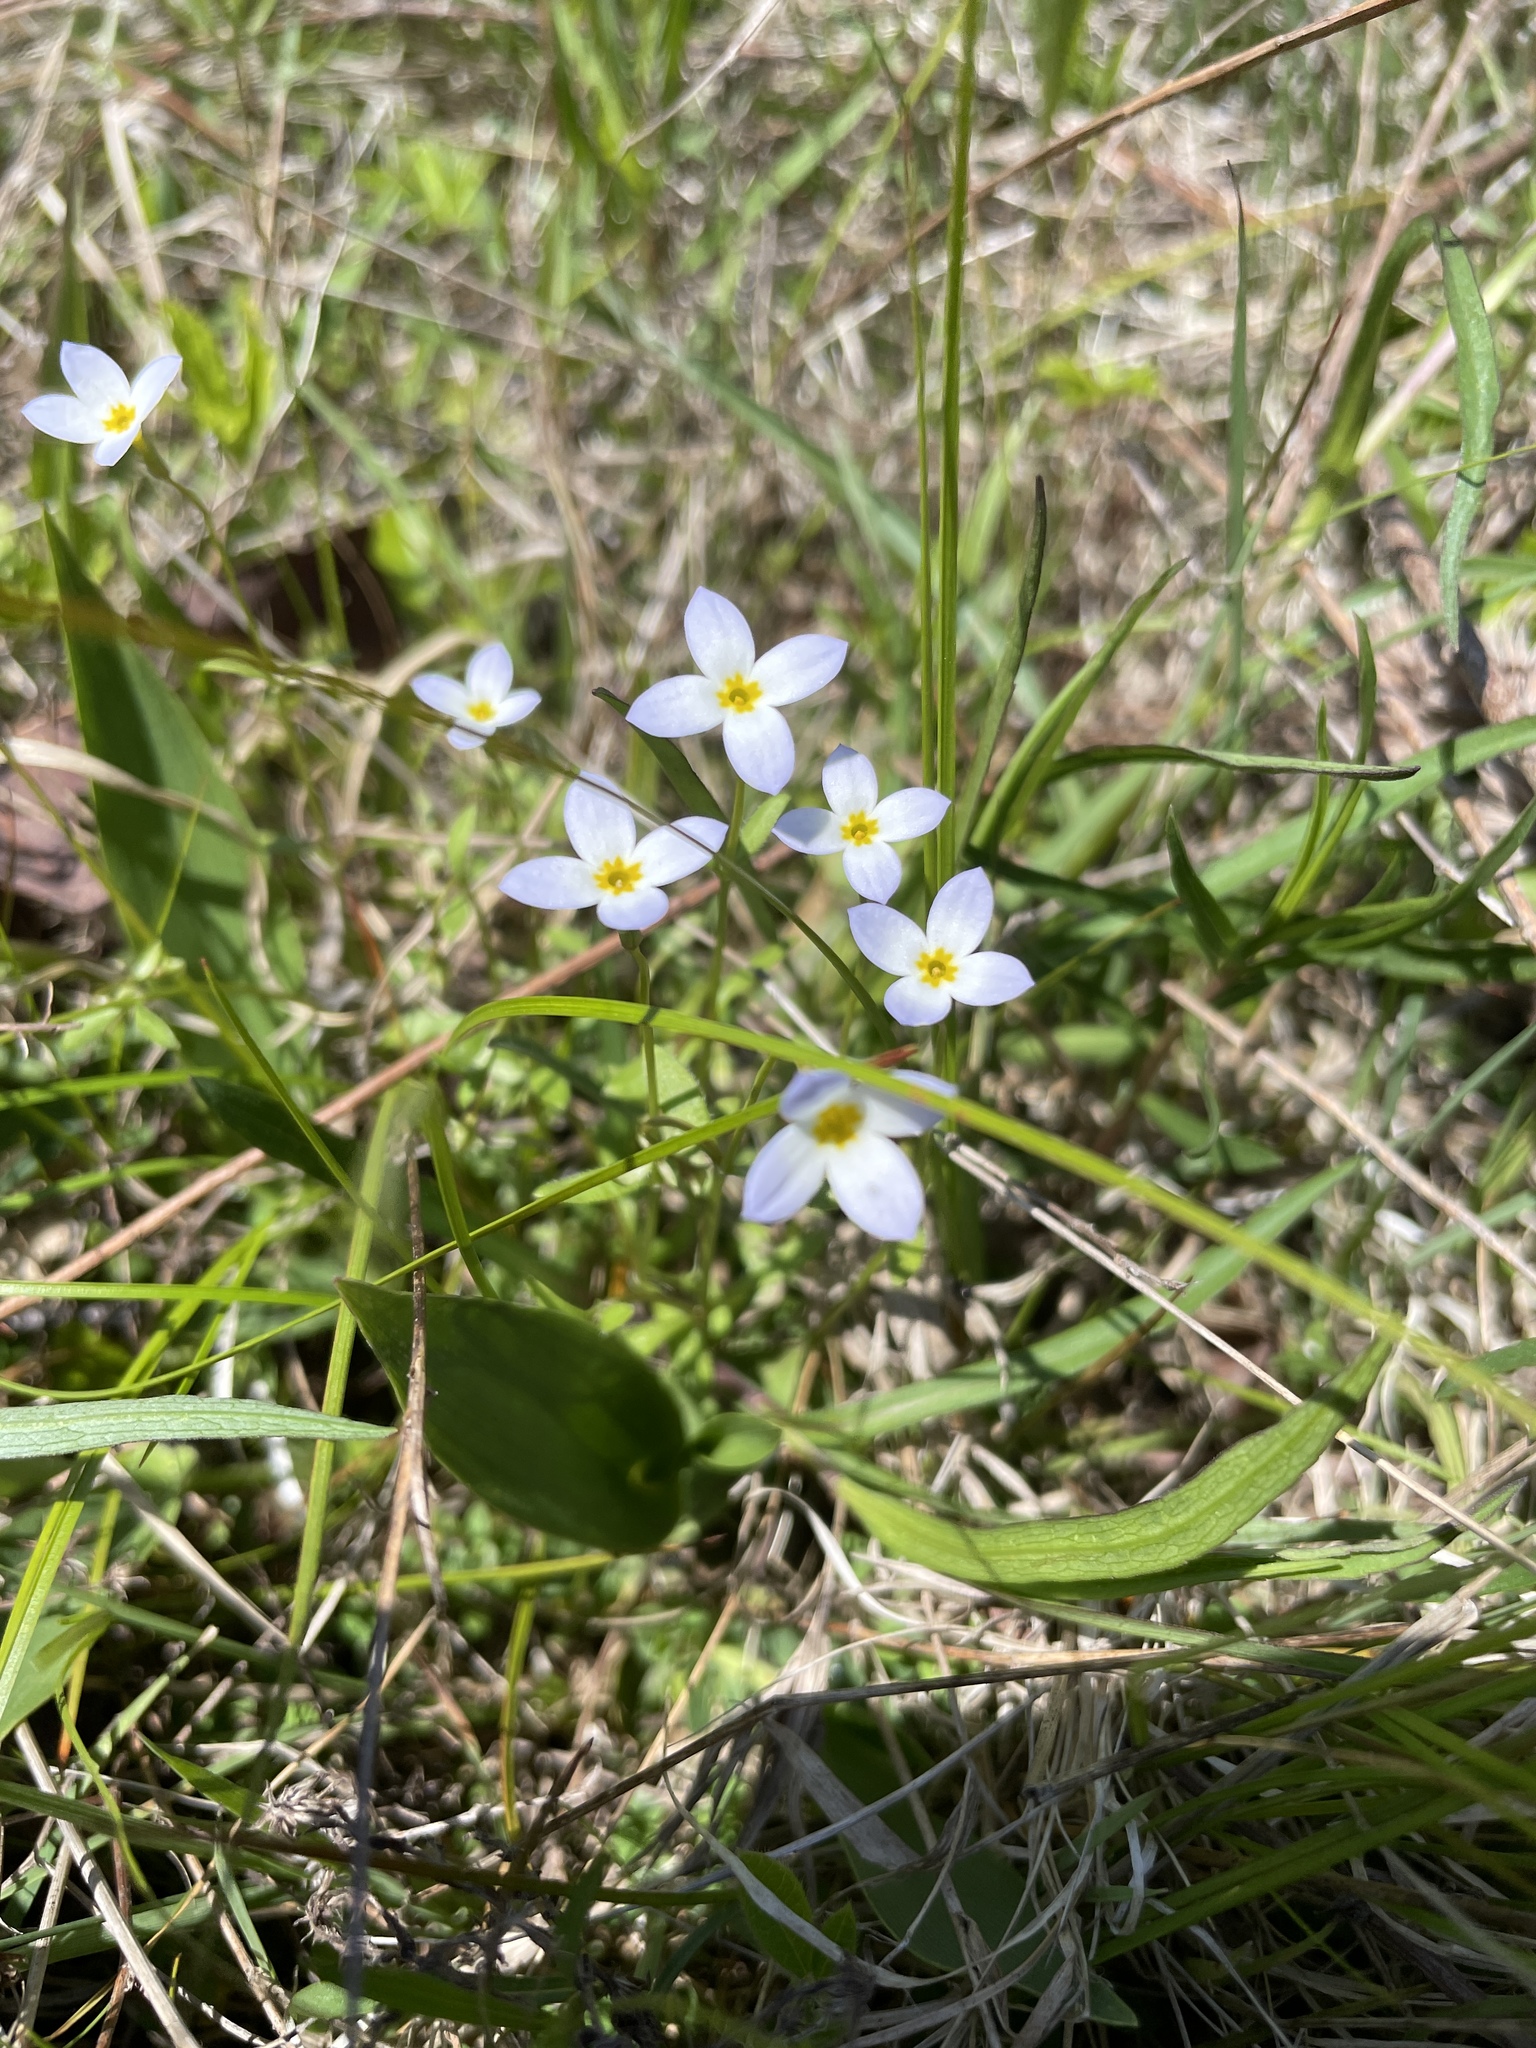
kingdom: Plantae
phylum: Tracheophyta
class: Magnoliopsida
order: Gentianales
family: Rubiaceae
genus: Houstonia
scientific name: Houstonia caerulea
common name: Bluets
